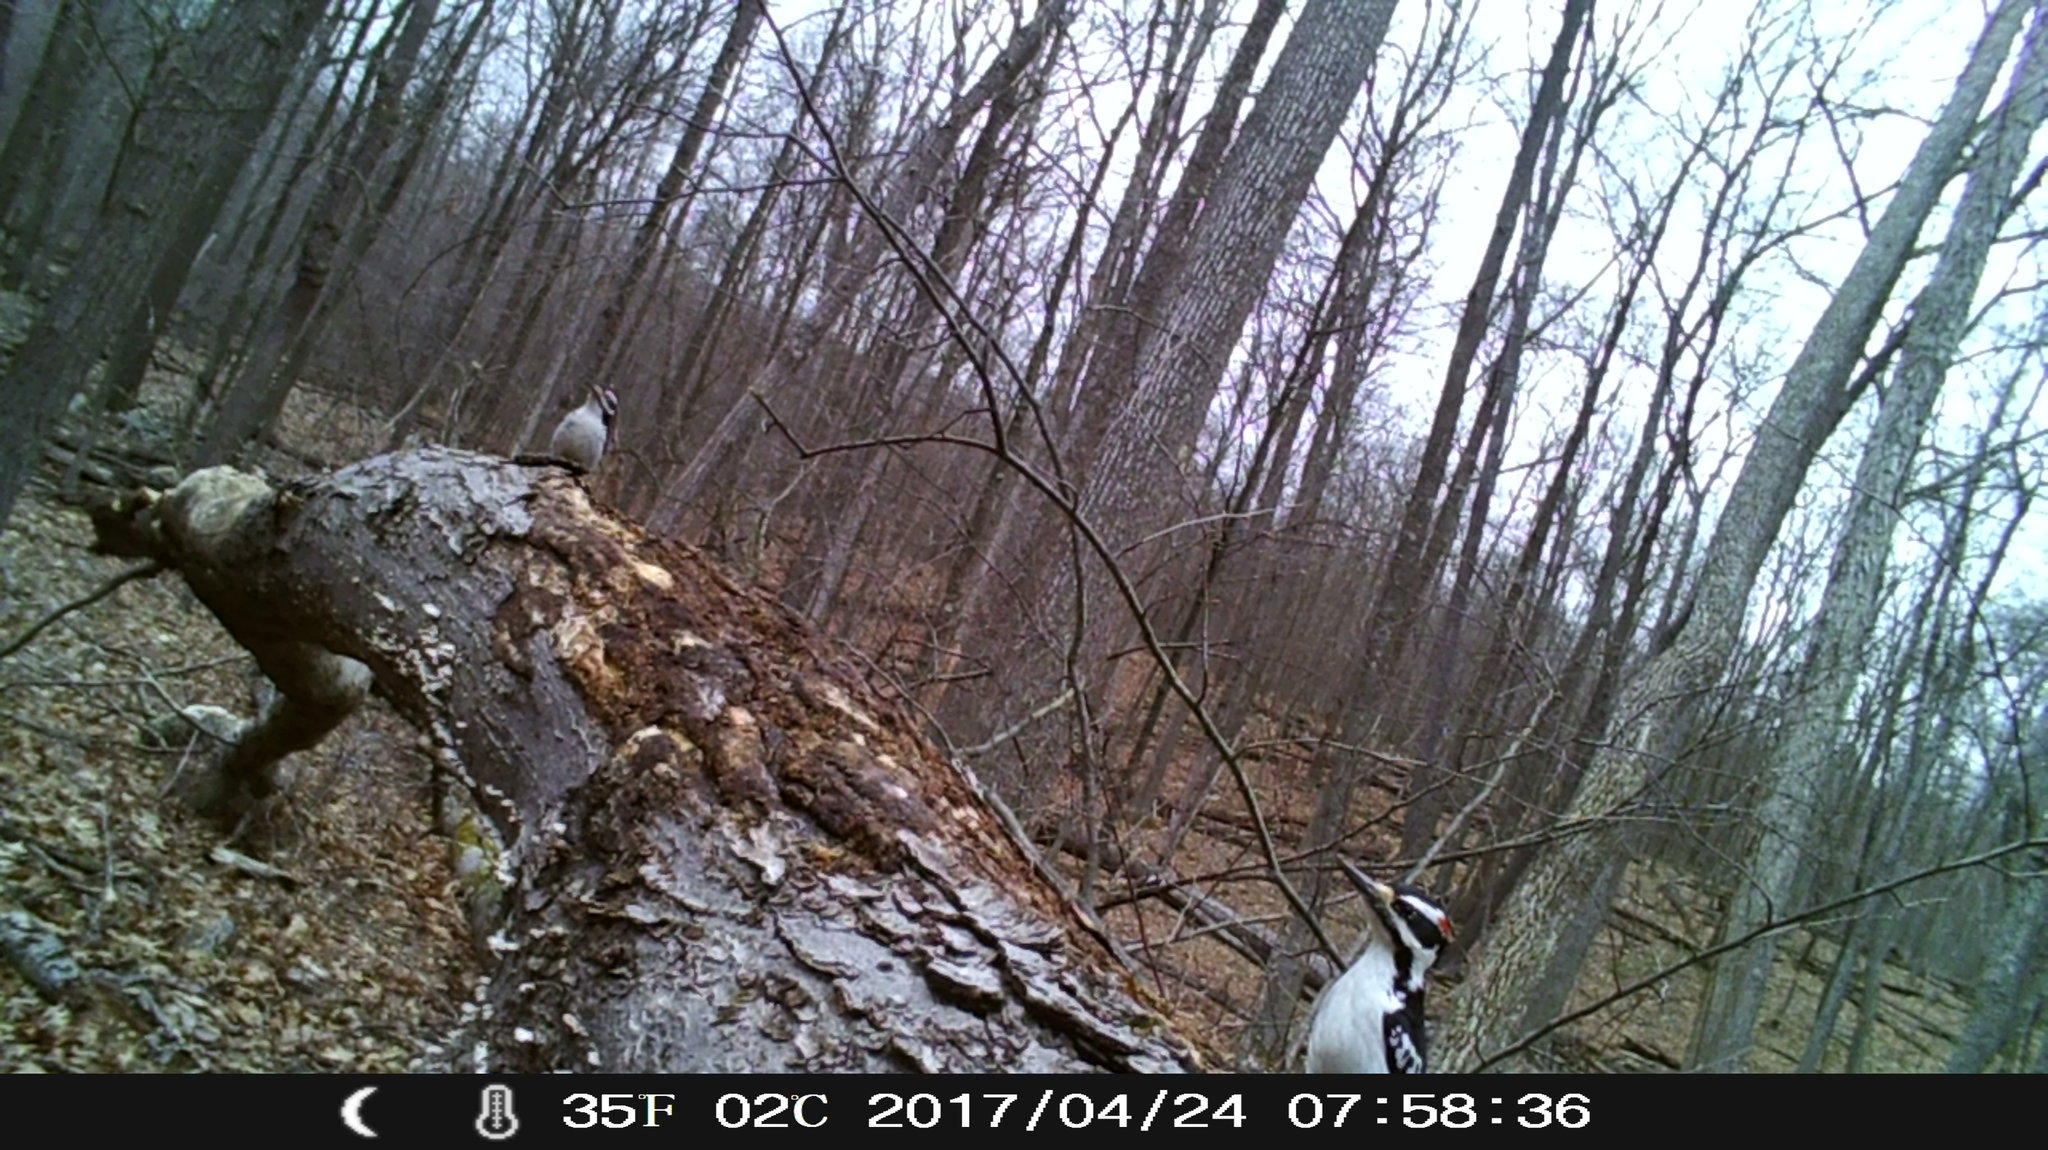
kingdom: Animalia
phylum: Chordata
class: Aves
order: Piciformes
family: Picidae
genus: Leuconotopicus
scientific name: Leuconotopicus villosus
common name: Hairy woodpecker
